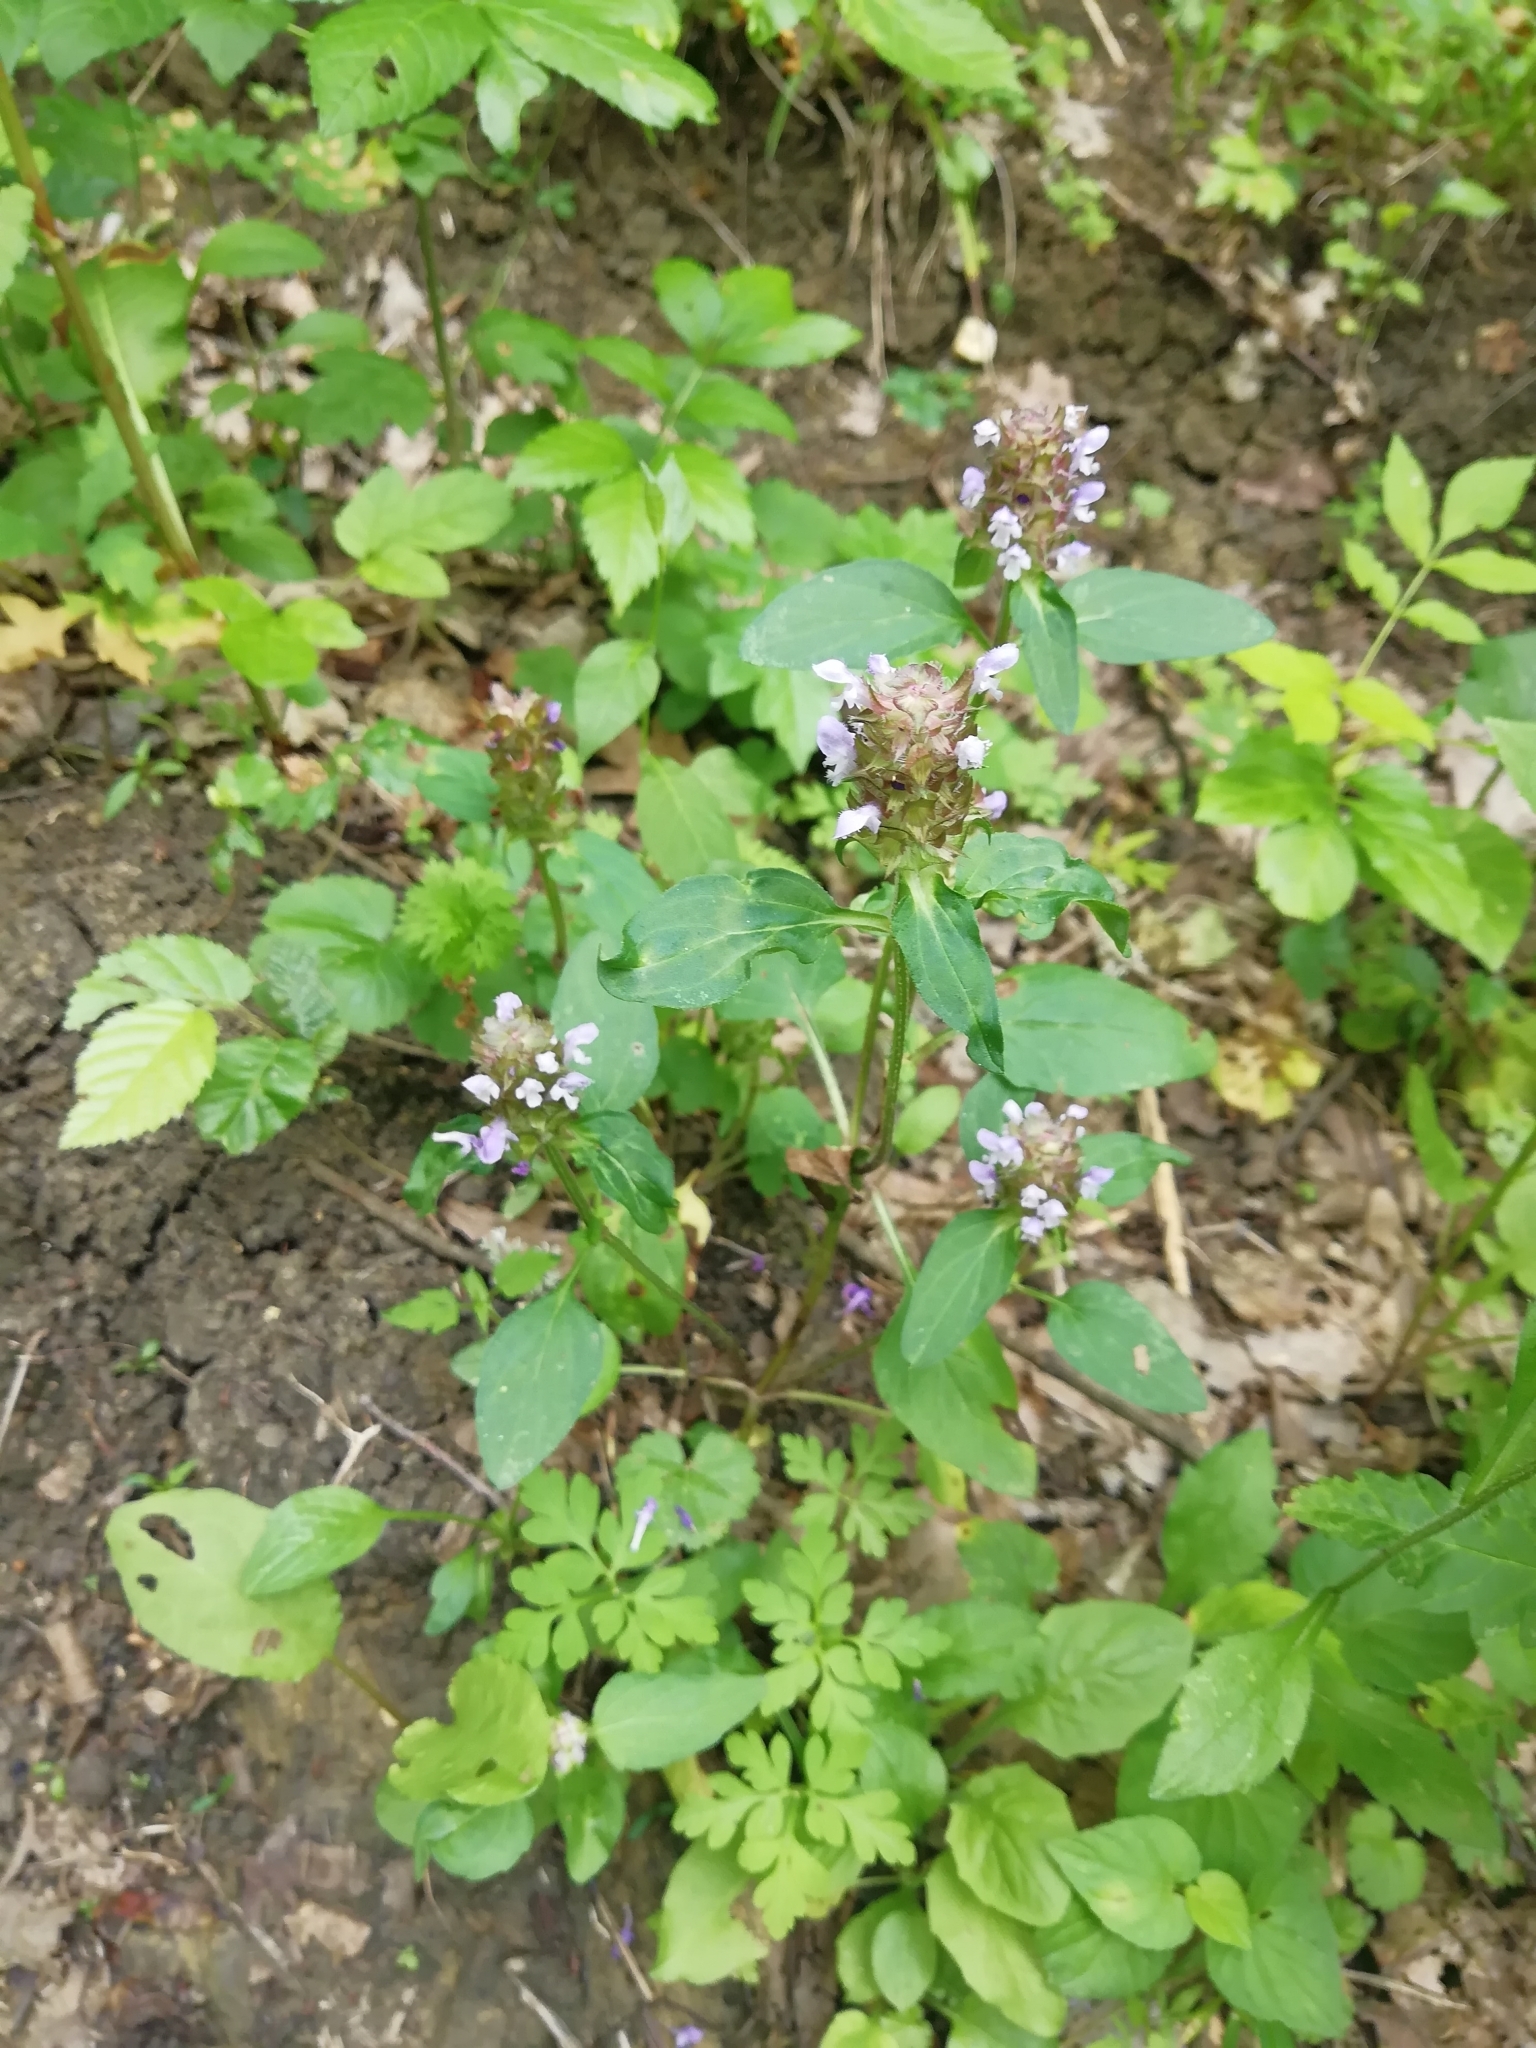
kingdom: Plantae
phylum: Tracheophyta
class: Magnoliopsida
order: Lamiales
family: Lamiaceae
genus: Prunella
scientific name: Prunella vulgaris
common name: Heal-all
